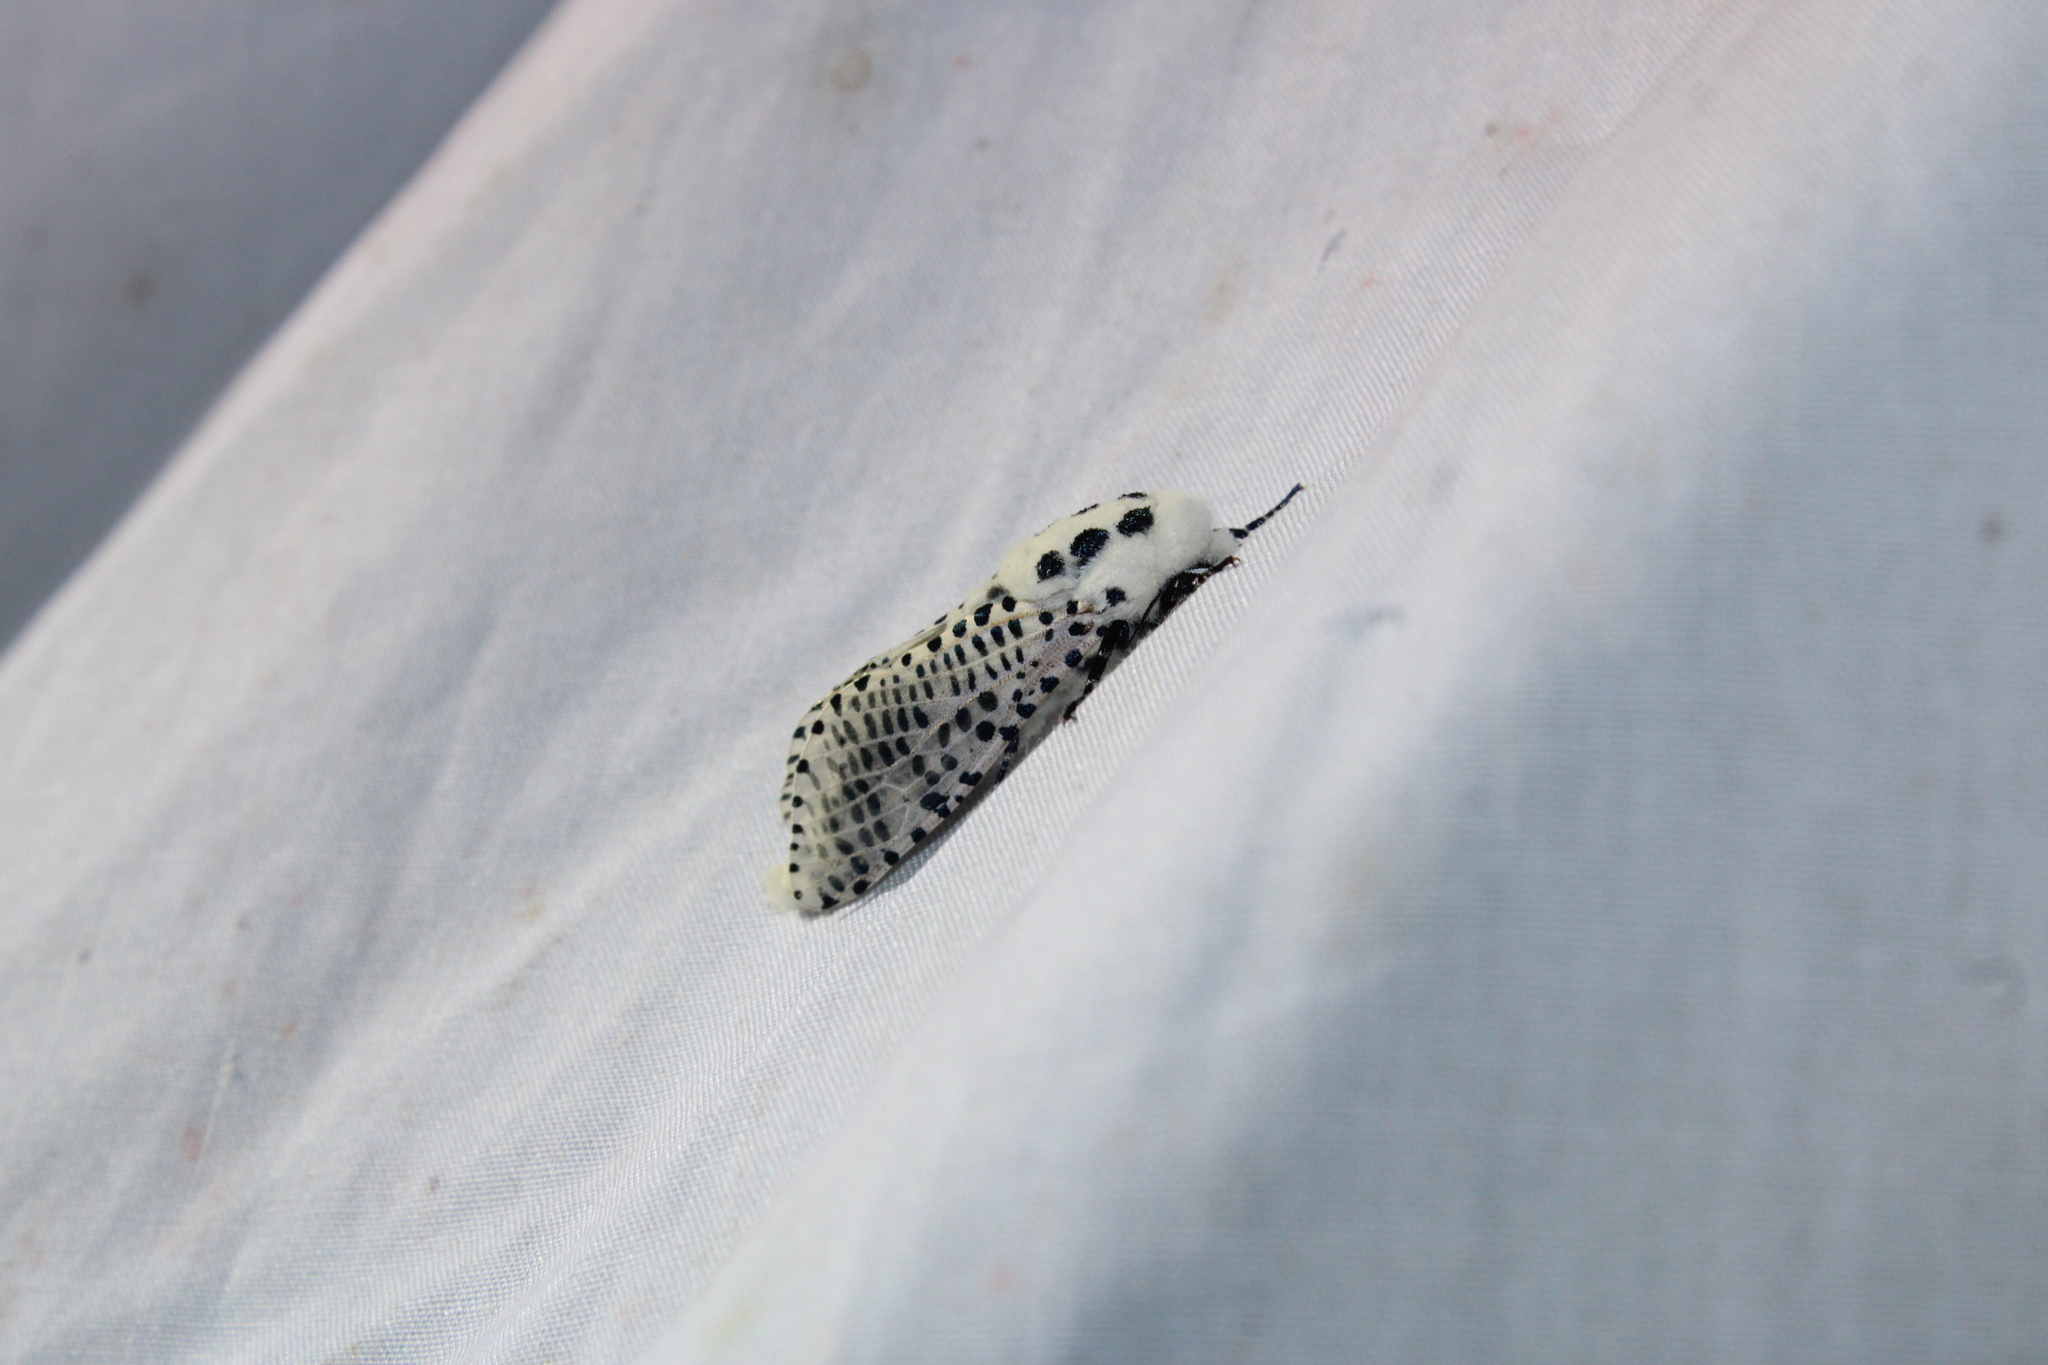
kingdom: Animalia
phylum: Arthropoda
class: Insecta
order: Lepidoptera
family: Cossidae
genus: Zeuzera
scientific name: Zeuzera pyrina
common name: Leopard moth
